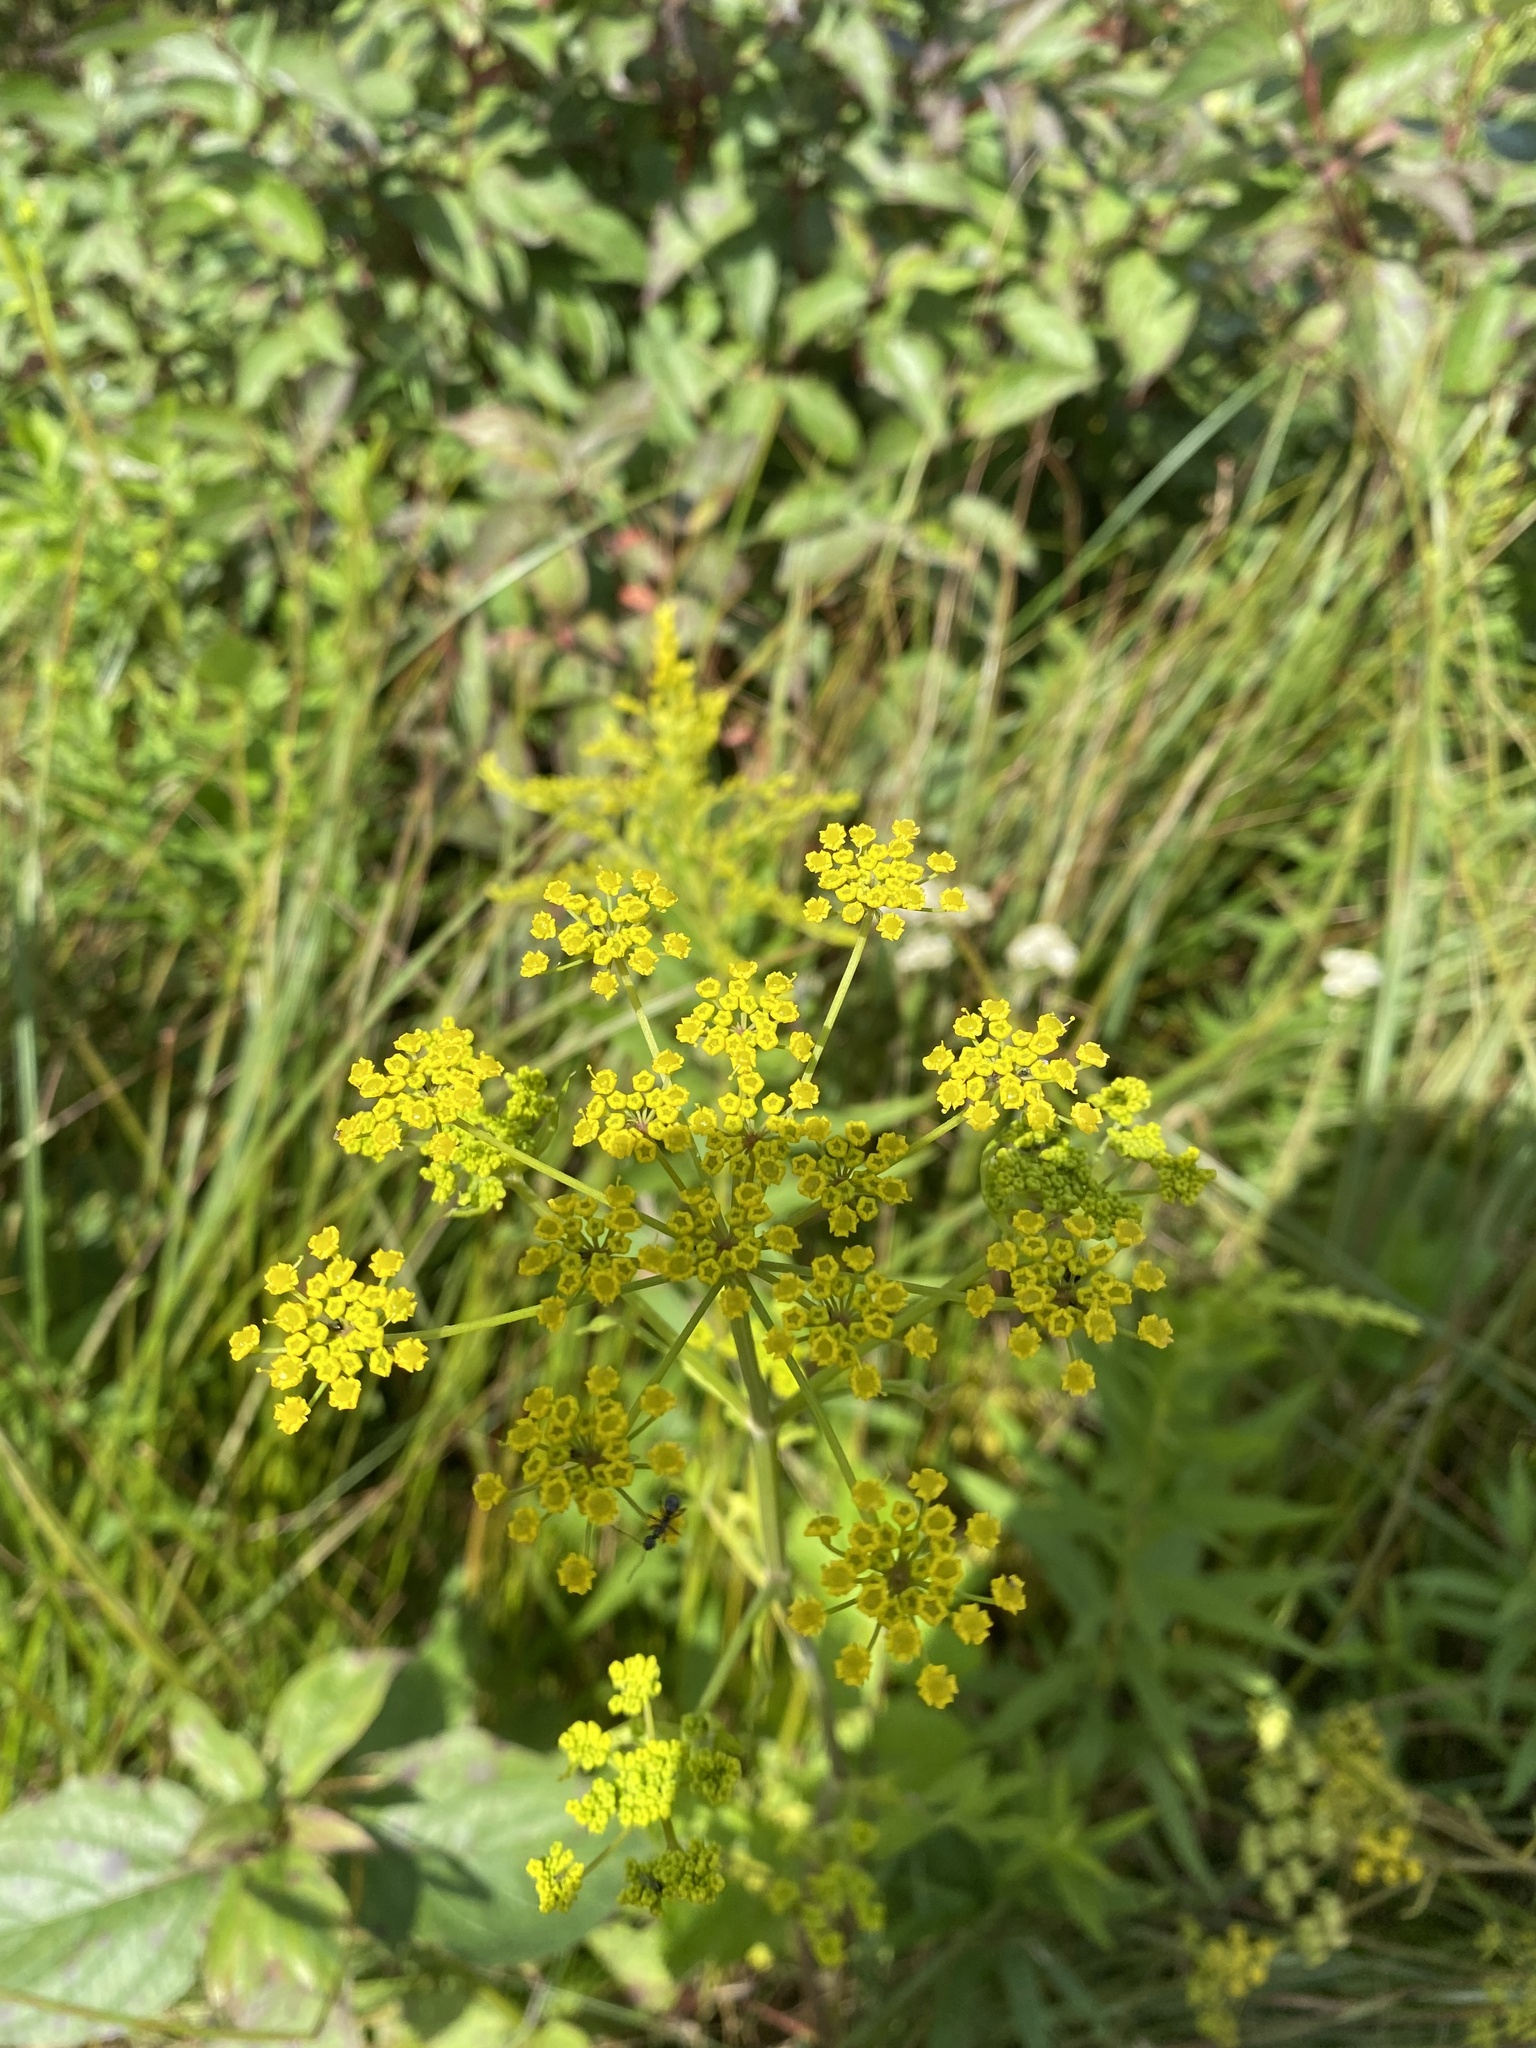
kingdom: Plantae
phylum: Tracheophyta
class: Magnoliopsida
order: Apiales
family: Apiaceae
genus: Pastinaca
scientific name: Pastinaca sativa
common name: Wild parsnip
